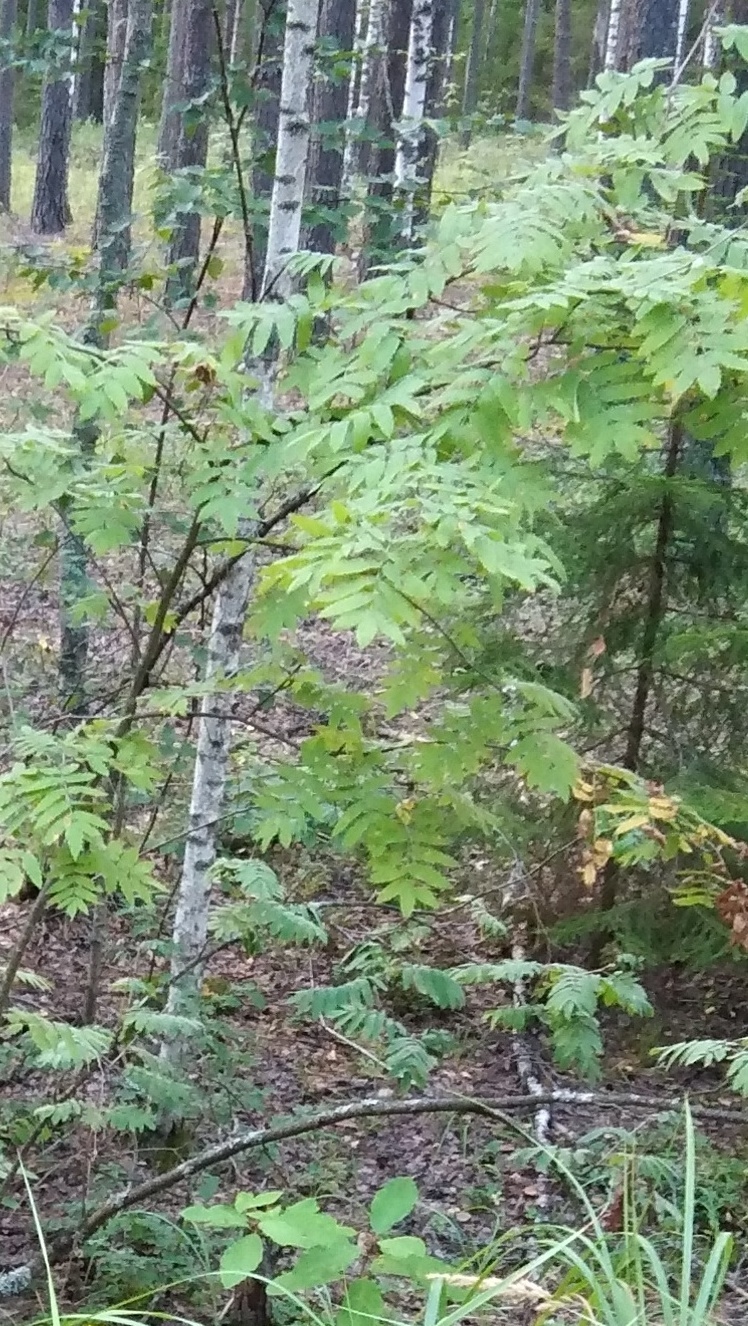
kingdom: Plantae
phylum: Tracheophyta
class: Magnoliopsida
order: Rosales
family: Rosaceae
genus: Sorbus
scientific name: Sorbus aucuparia
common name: Rowan
